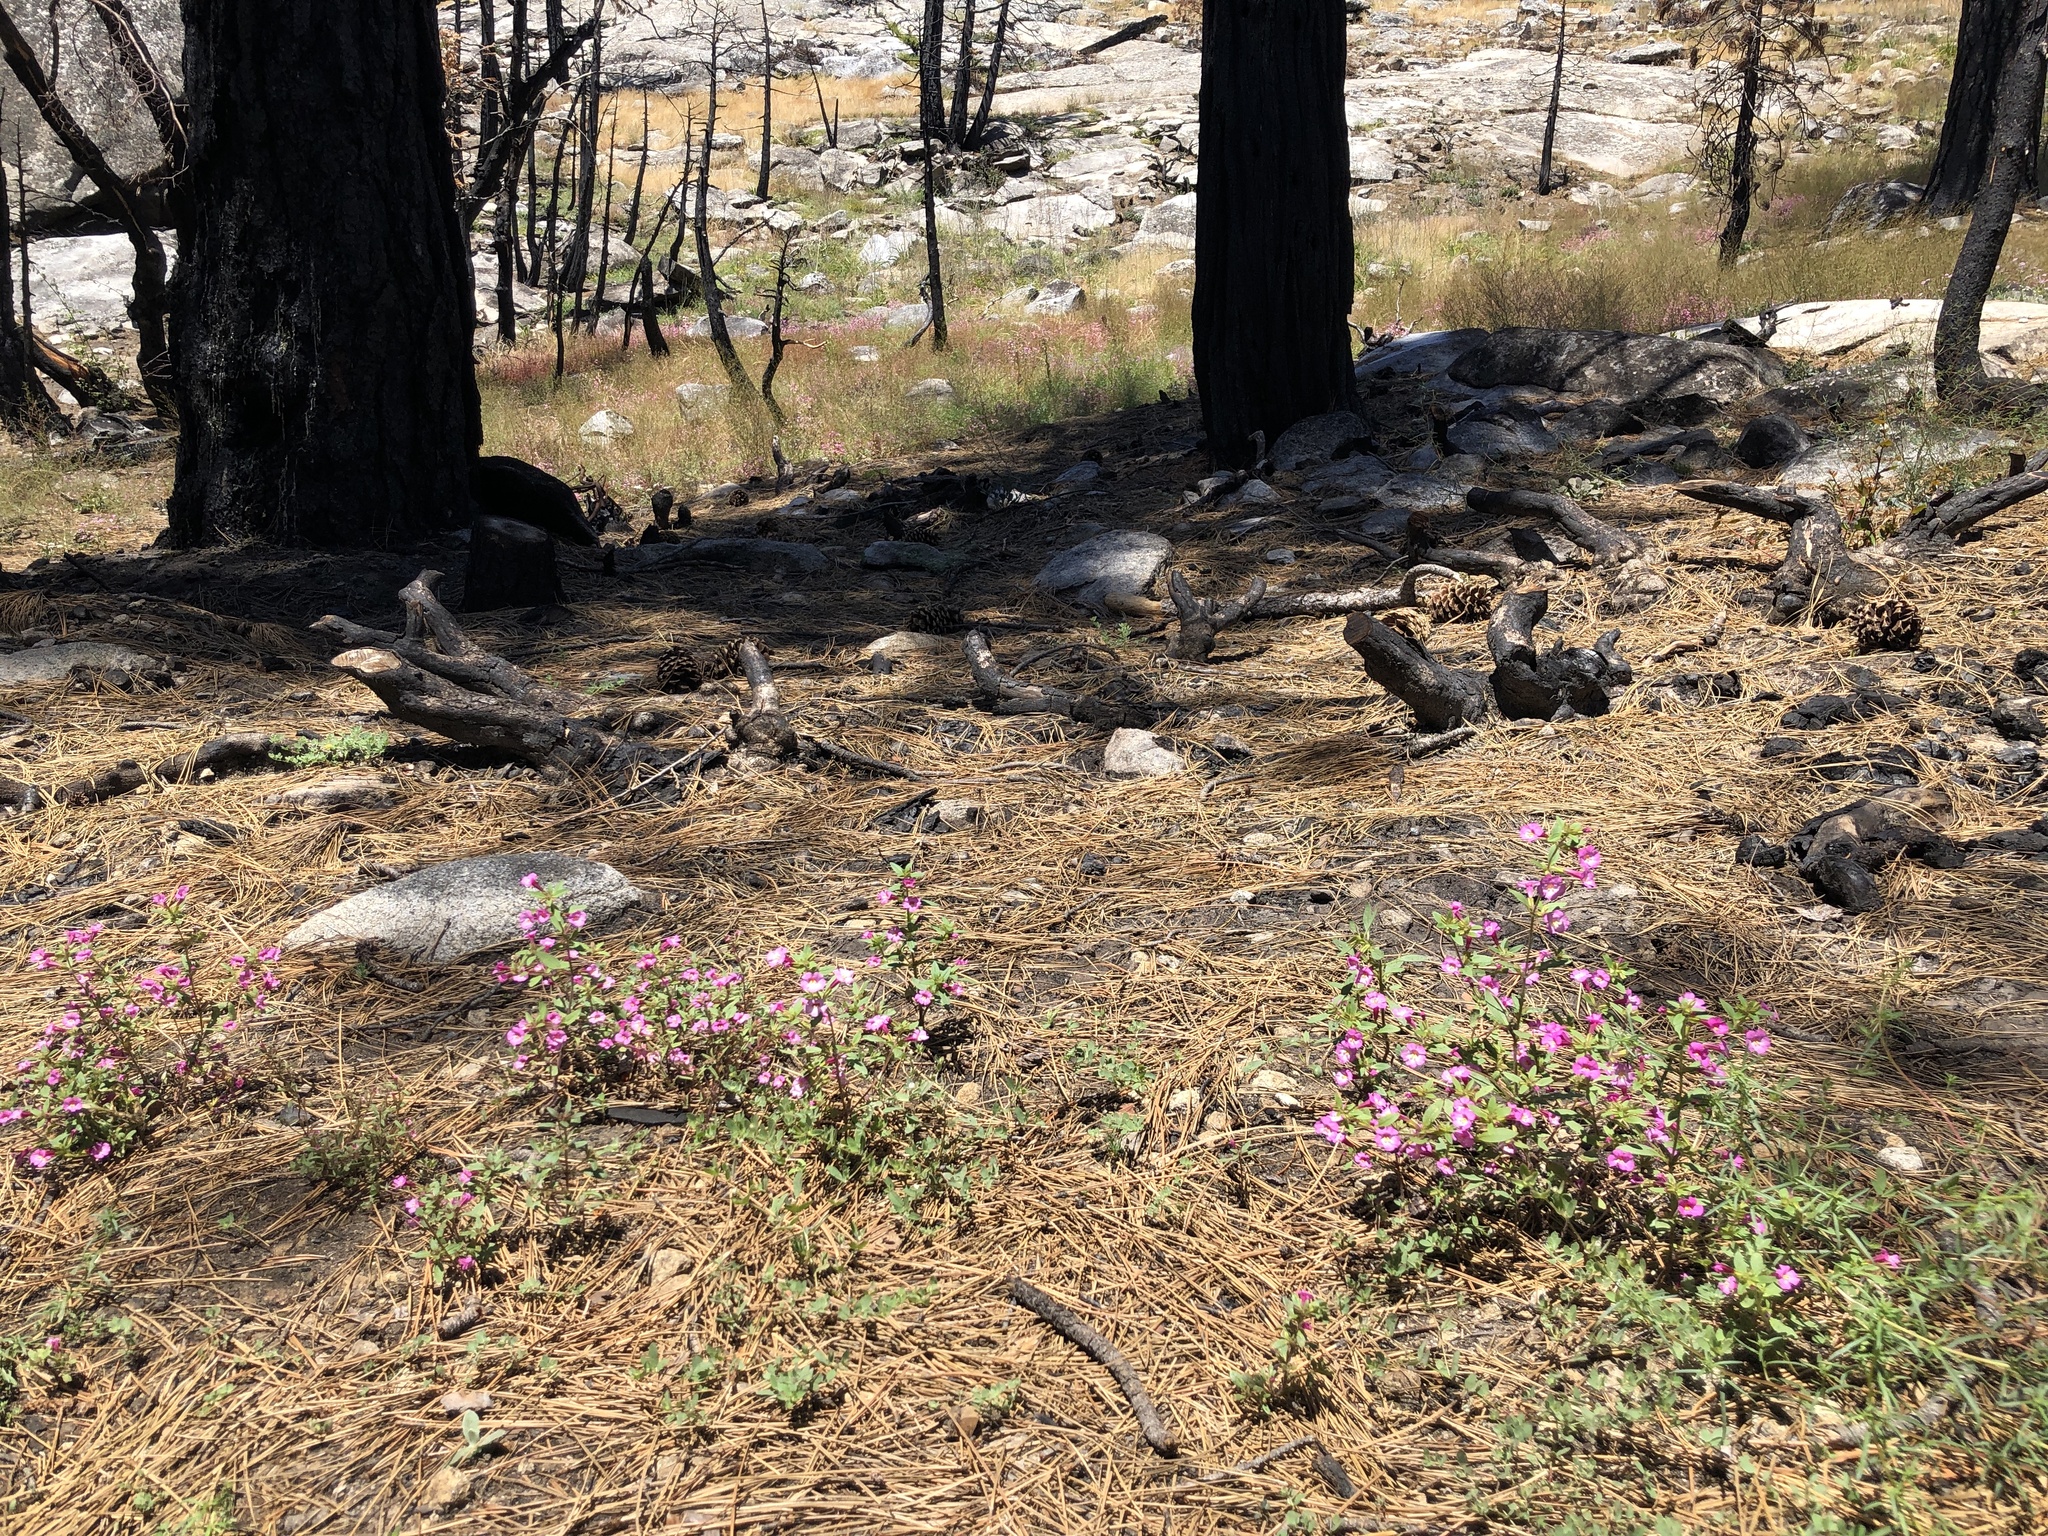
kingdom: Plantae
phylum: Tracheophyta
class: Magnoliopsida
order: Lamiales
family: Phrymaceae
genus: Diplacus
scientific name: Diplacus torreyi
